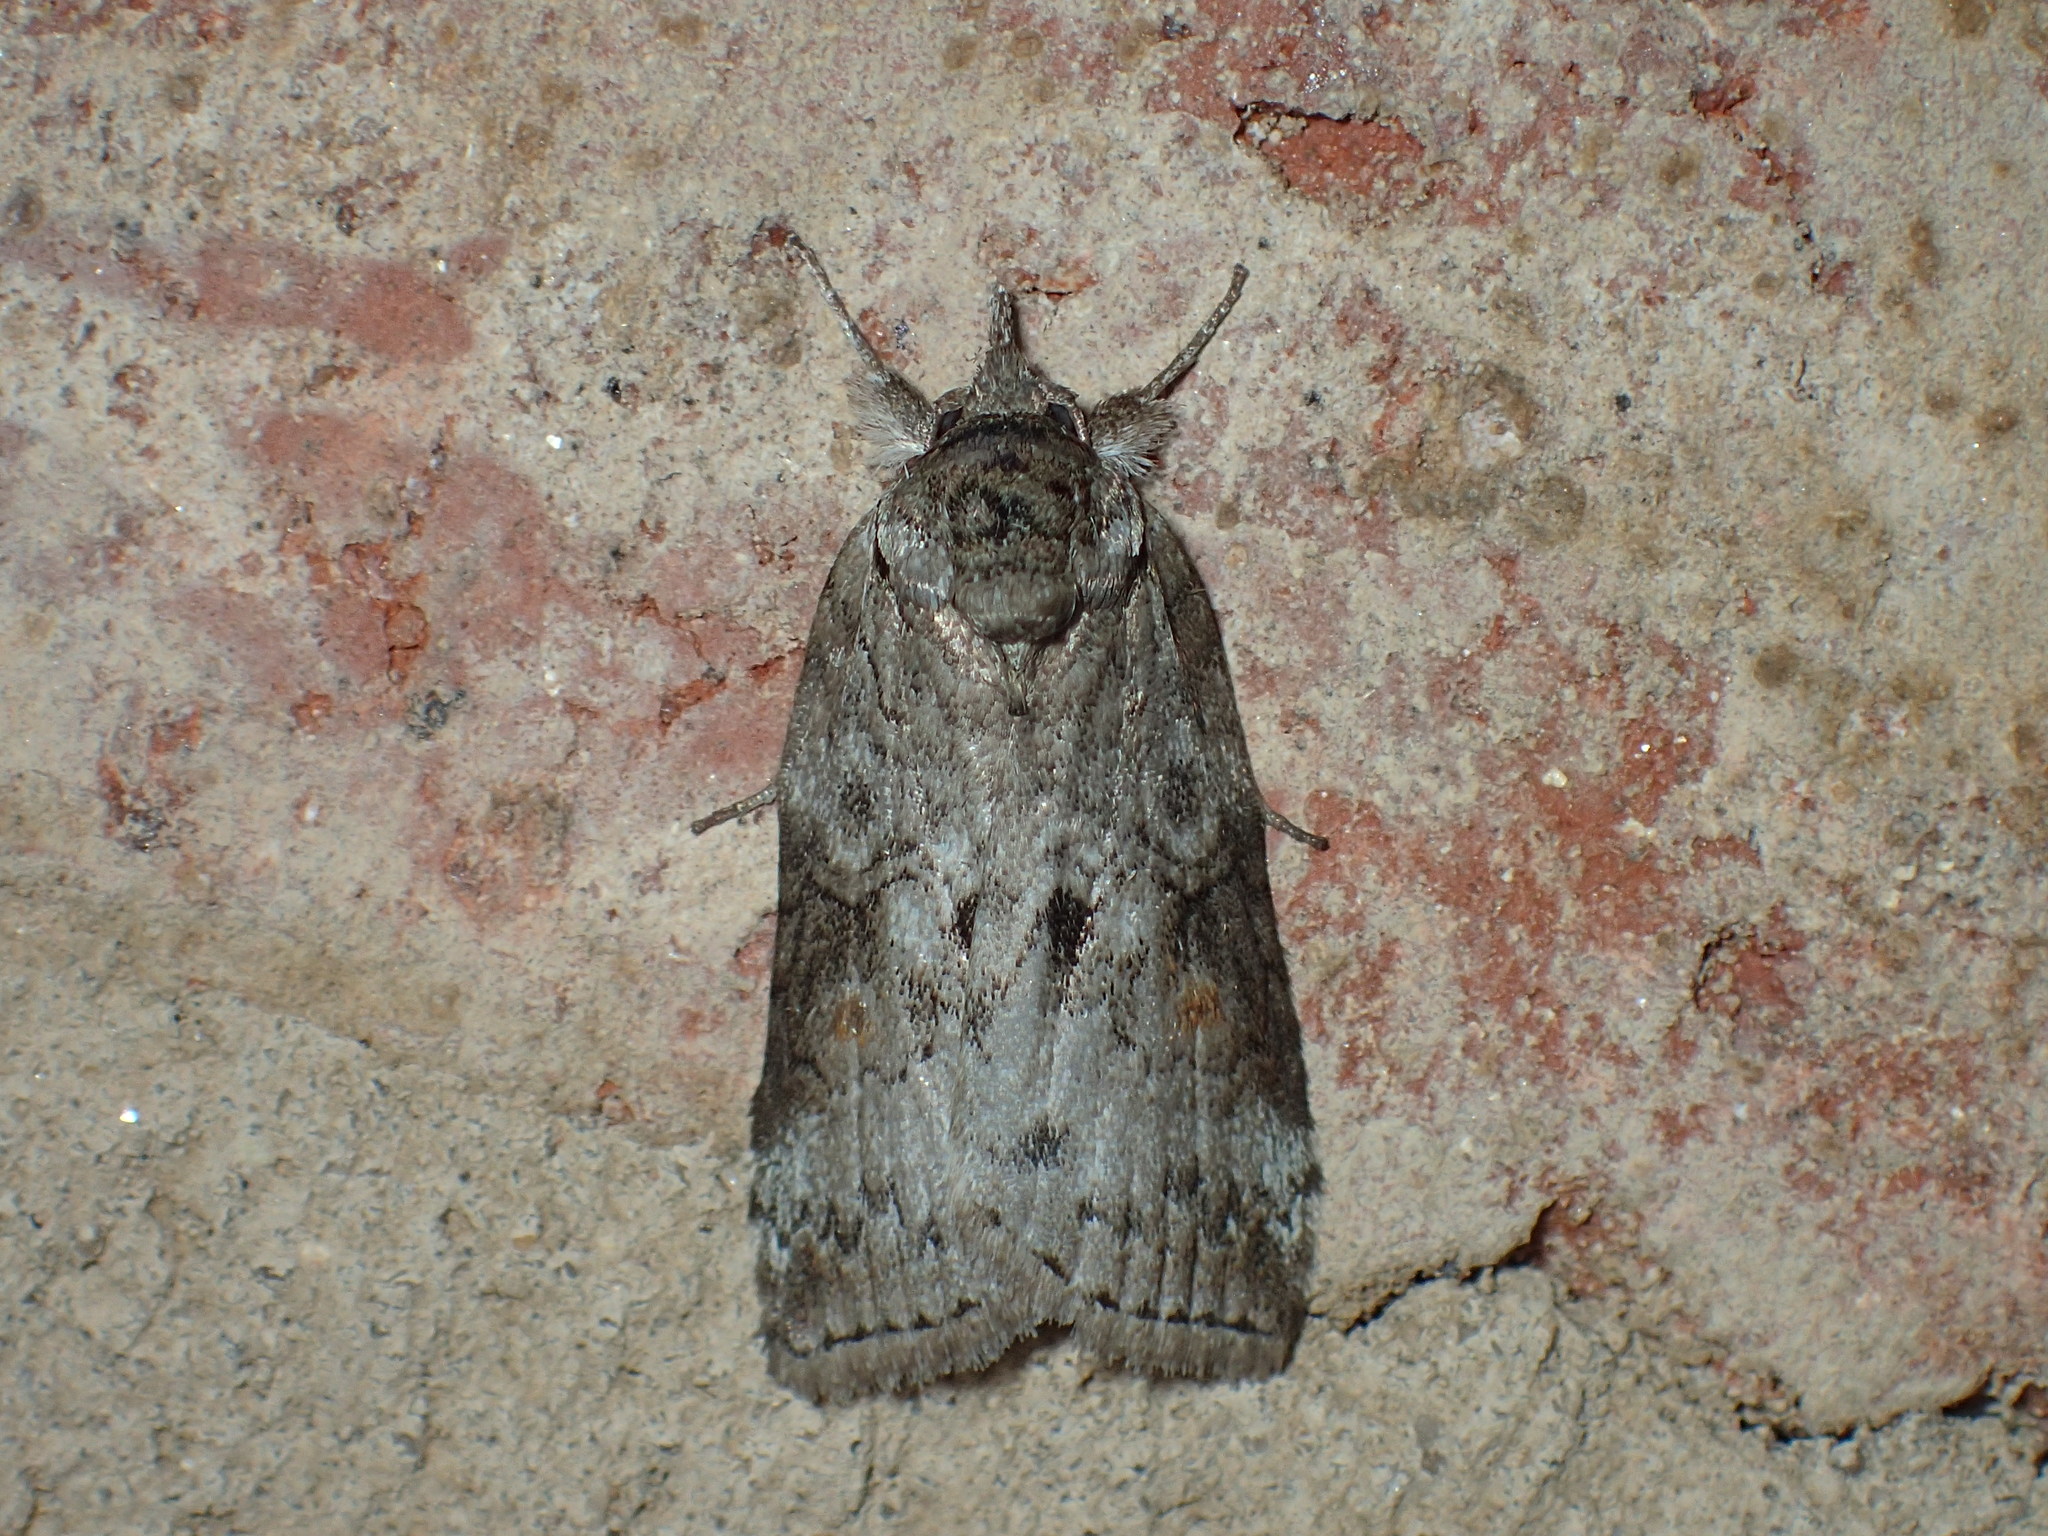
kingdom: Animalia
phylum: Arthropoda
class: Insecta
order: Lepidoptera
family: Nolidae
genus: Nycteola
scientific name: Nycteola metaspilella
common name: Forgotten frigid owlet
